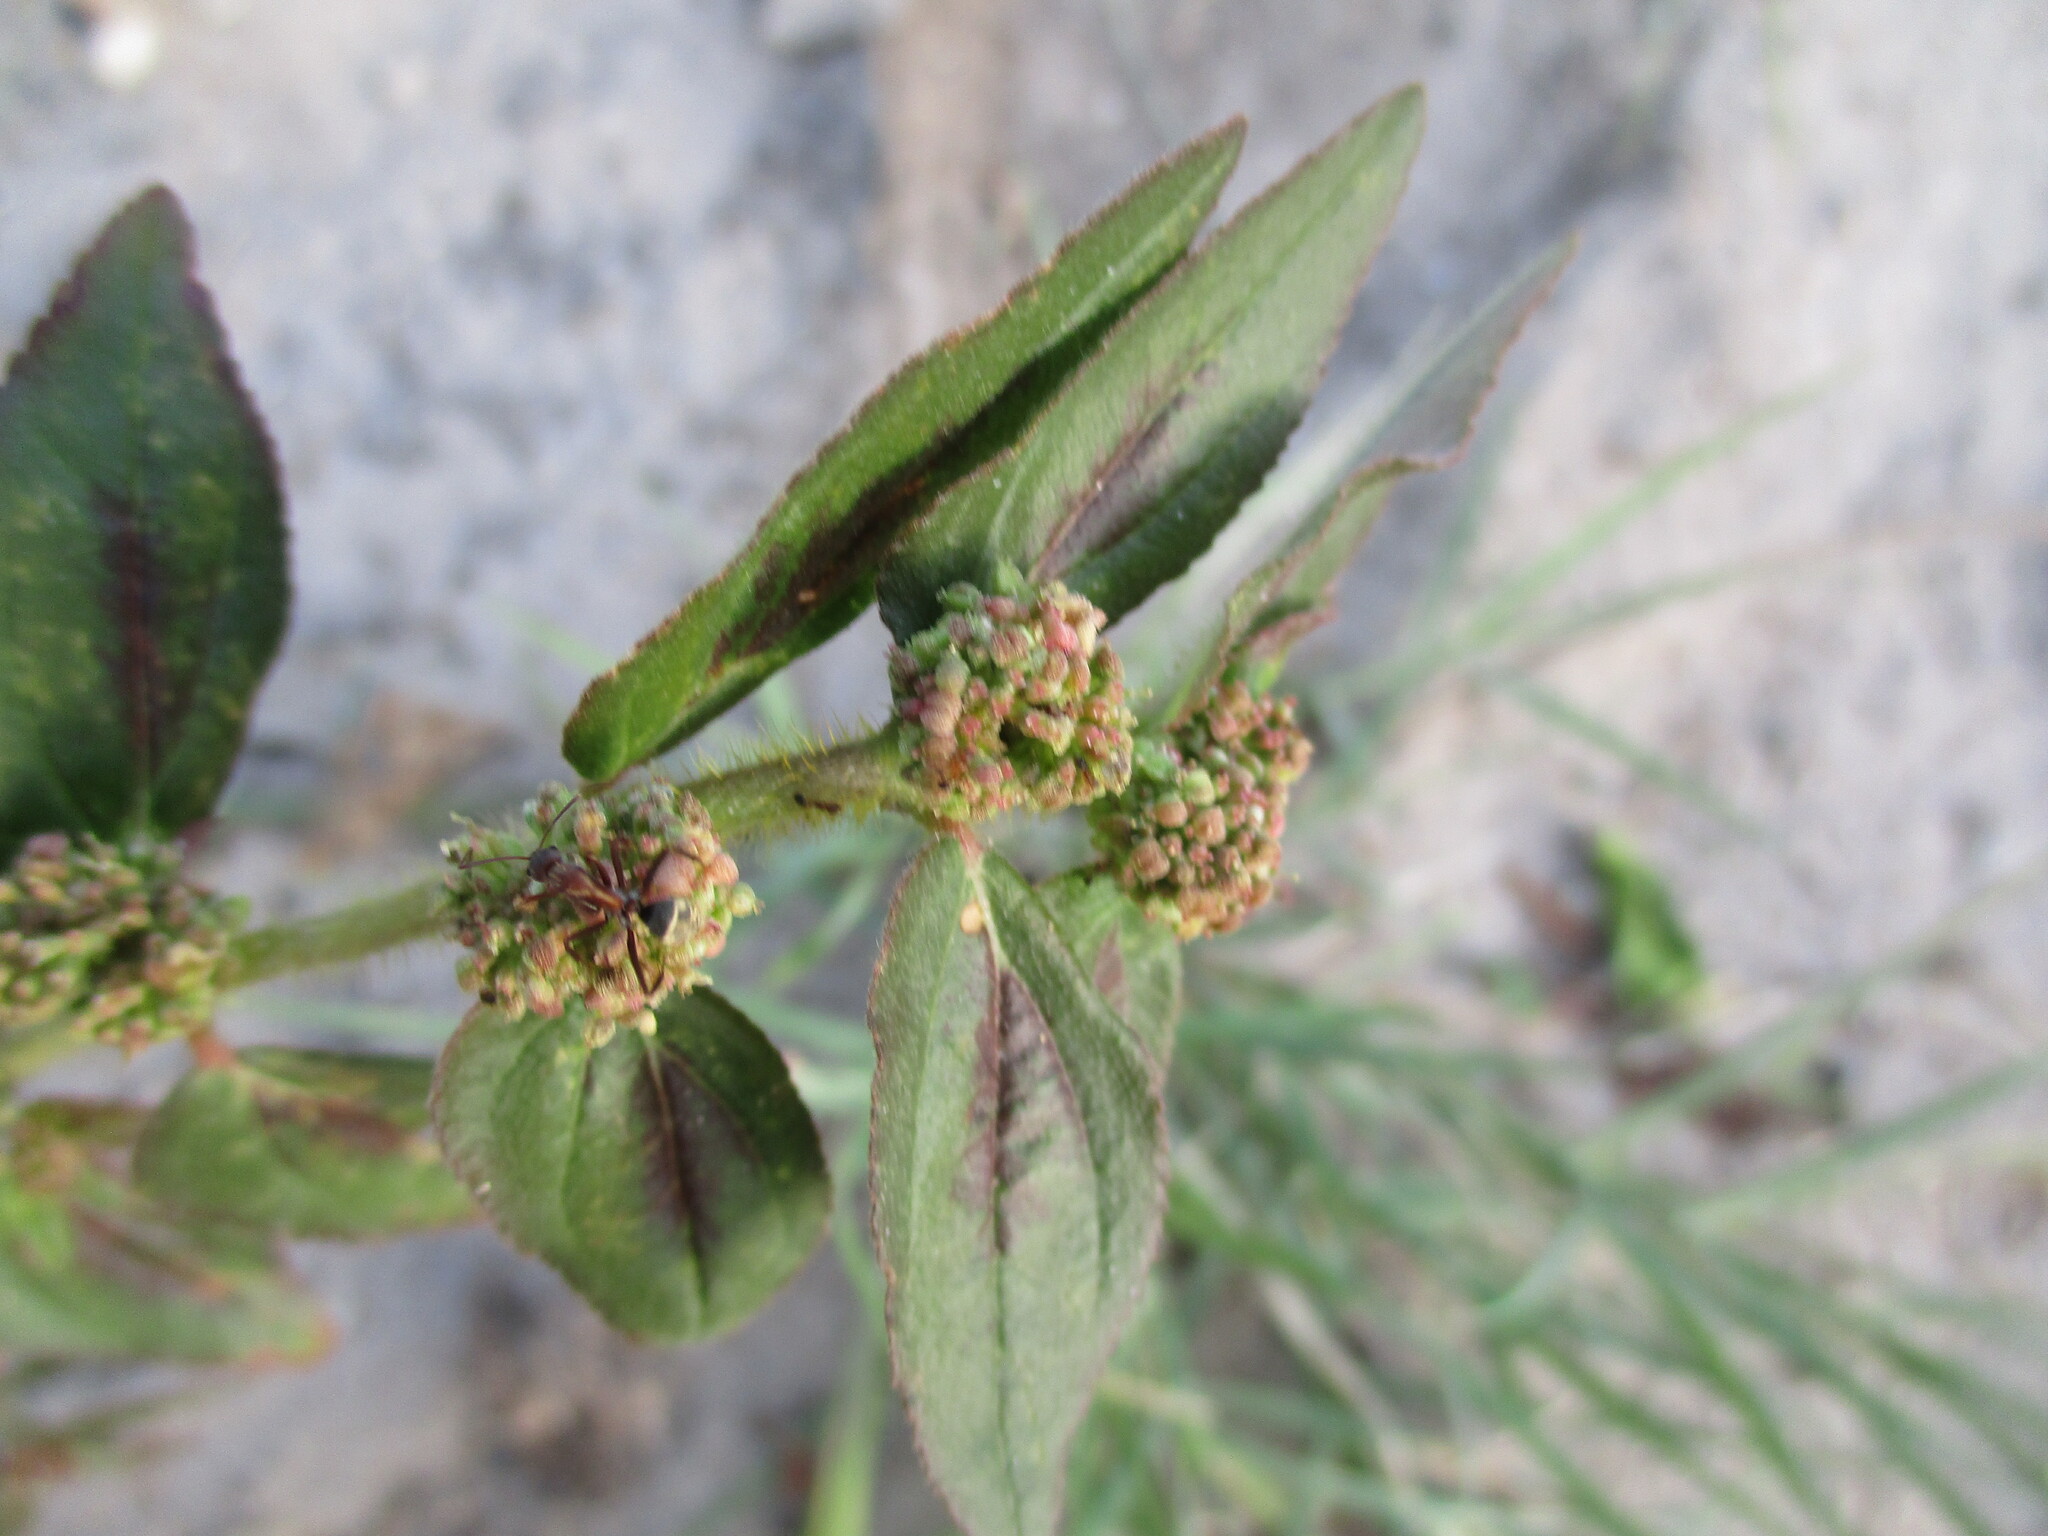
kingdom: Plantae
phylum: Tracheophyta
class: Magnoliopsida
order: Malpighiales
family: Euphorbiaceae
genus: Euphorbia
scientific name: Euphorbia hirta
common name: Pillpod sandmat
